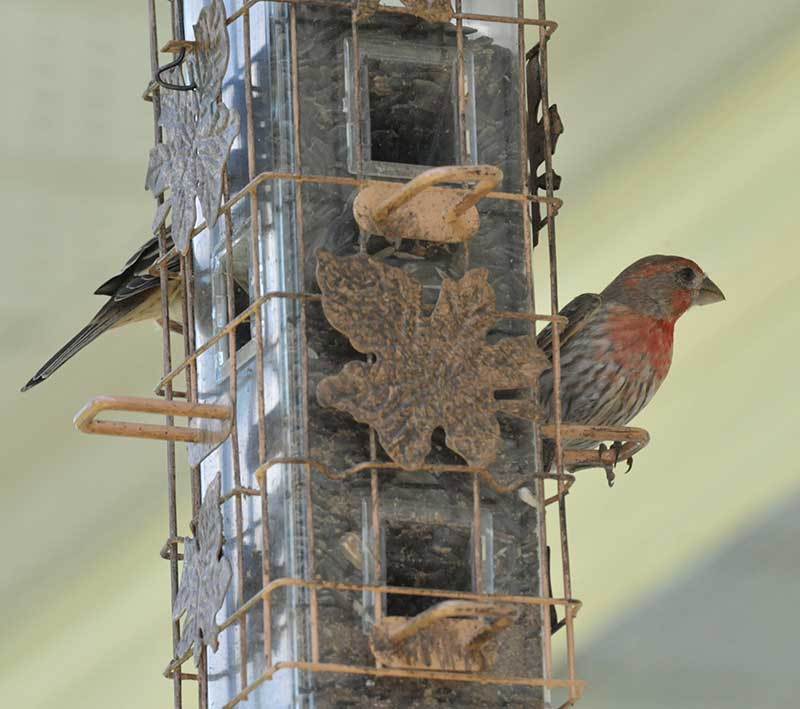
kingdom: Animalia
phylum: Chordata
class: Aves
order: Passeriformes
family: Fringillidae
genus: Haemorhous
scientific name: Haemorhous mexicanus
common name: House finch
